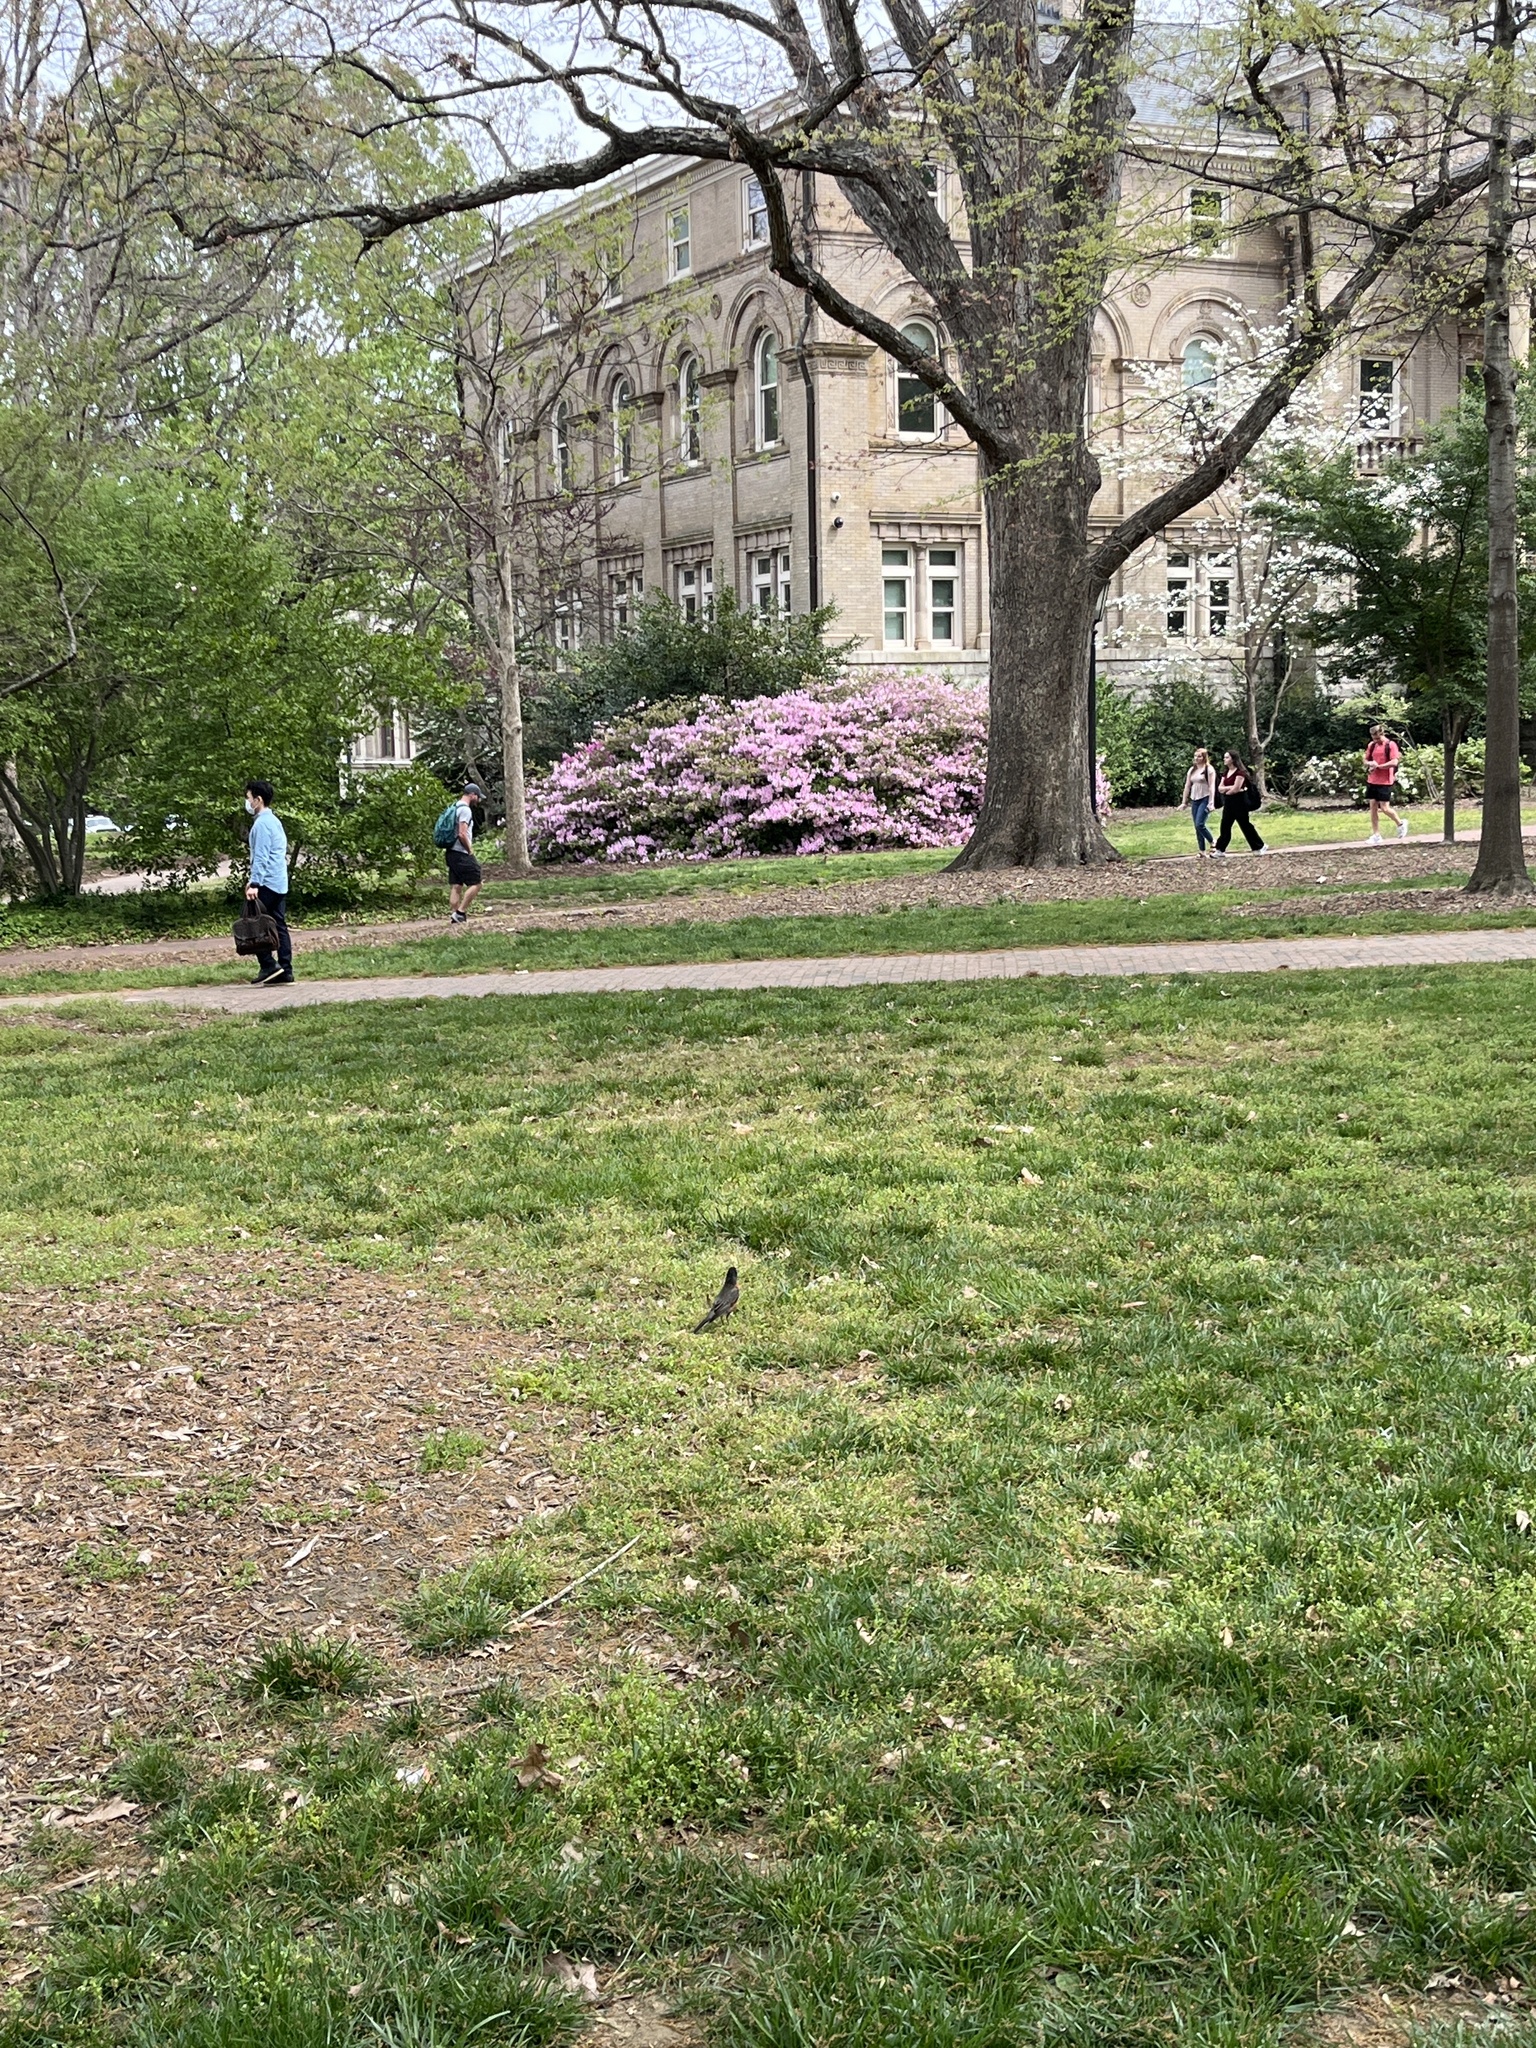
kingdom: Animalia
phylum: Chordata
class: Aves
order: Passeriformes
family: Turdidae
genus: Turdus
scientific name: Turdus migratorius
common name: American robin
